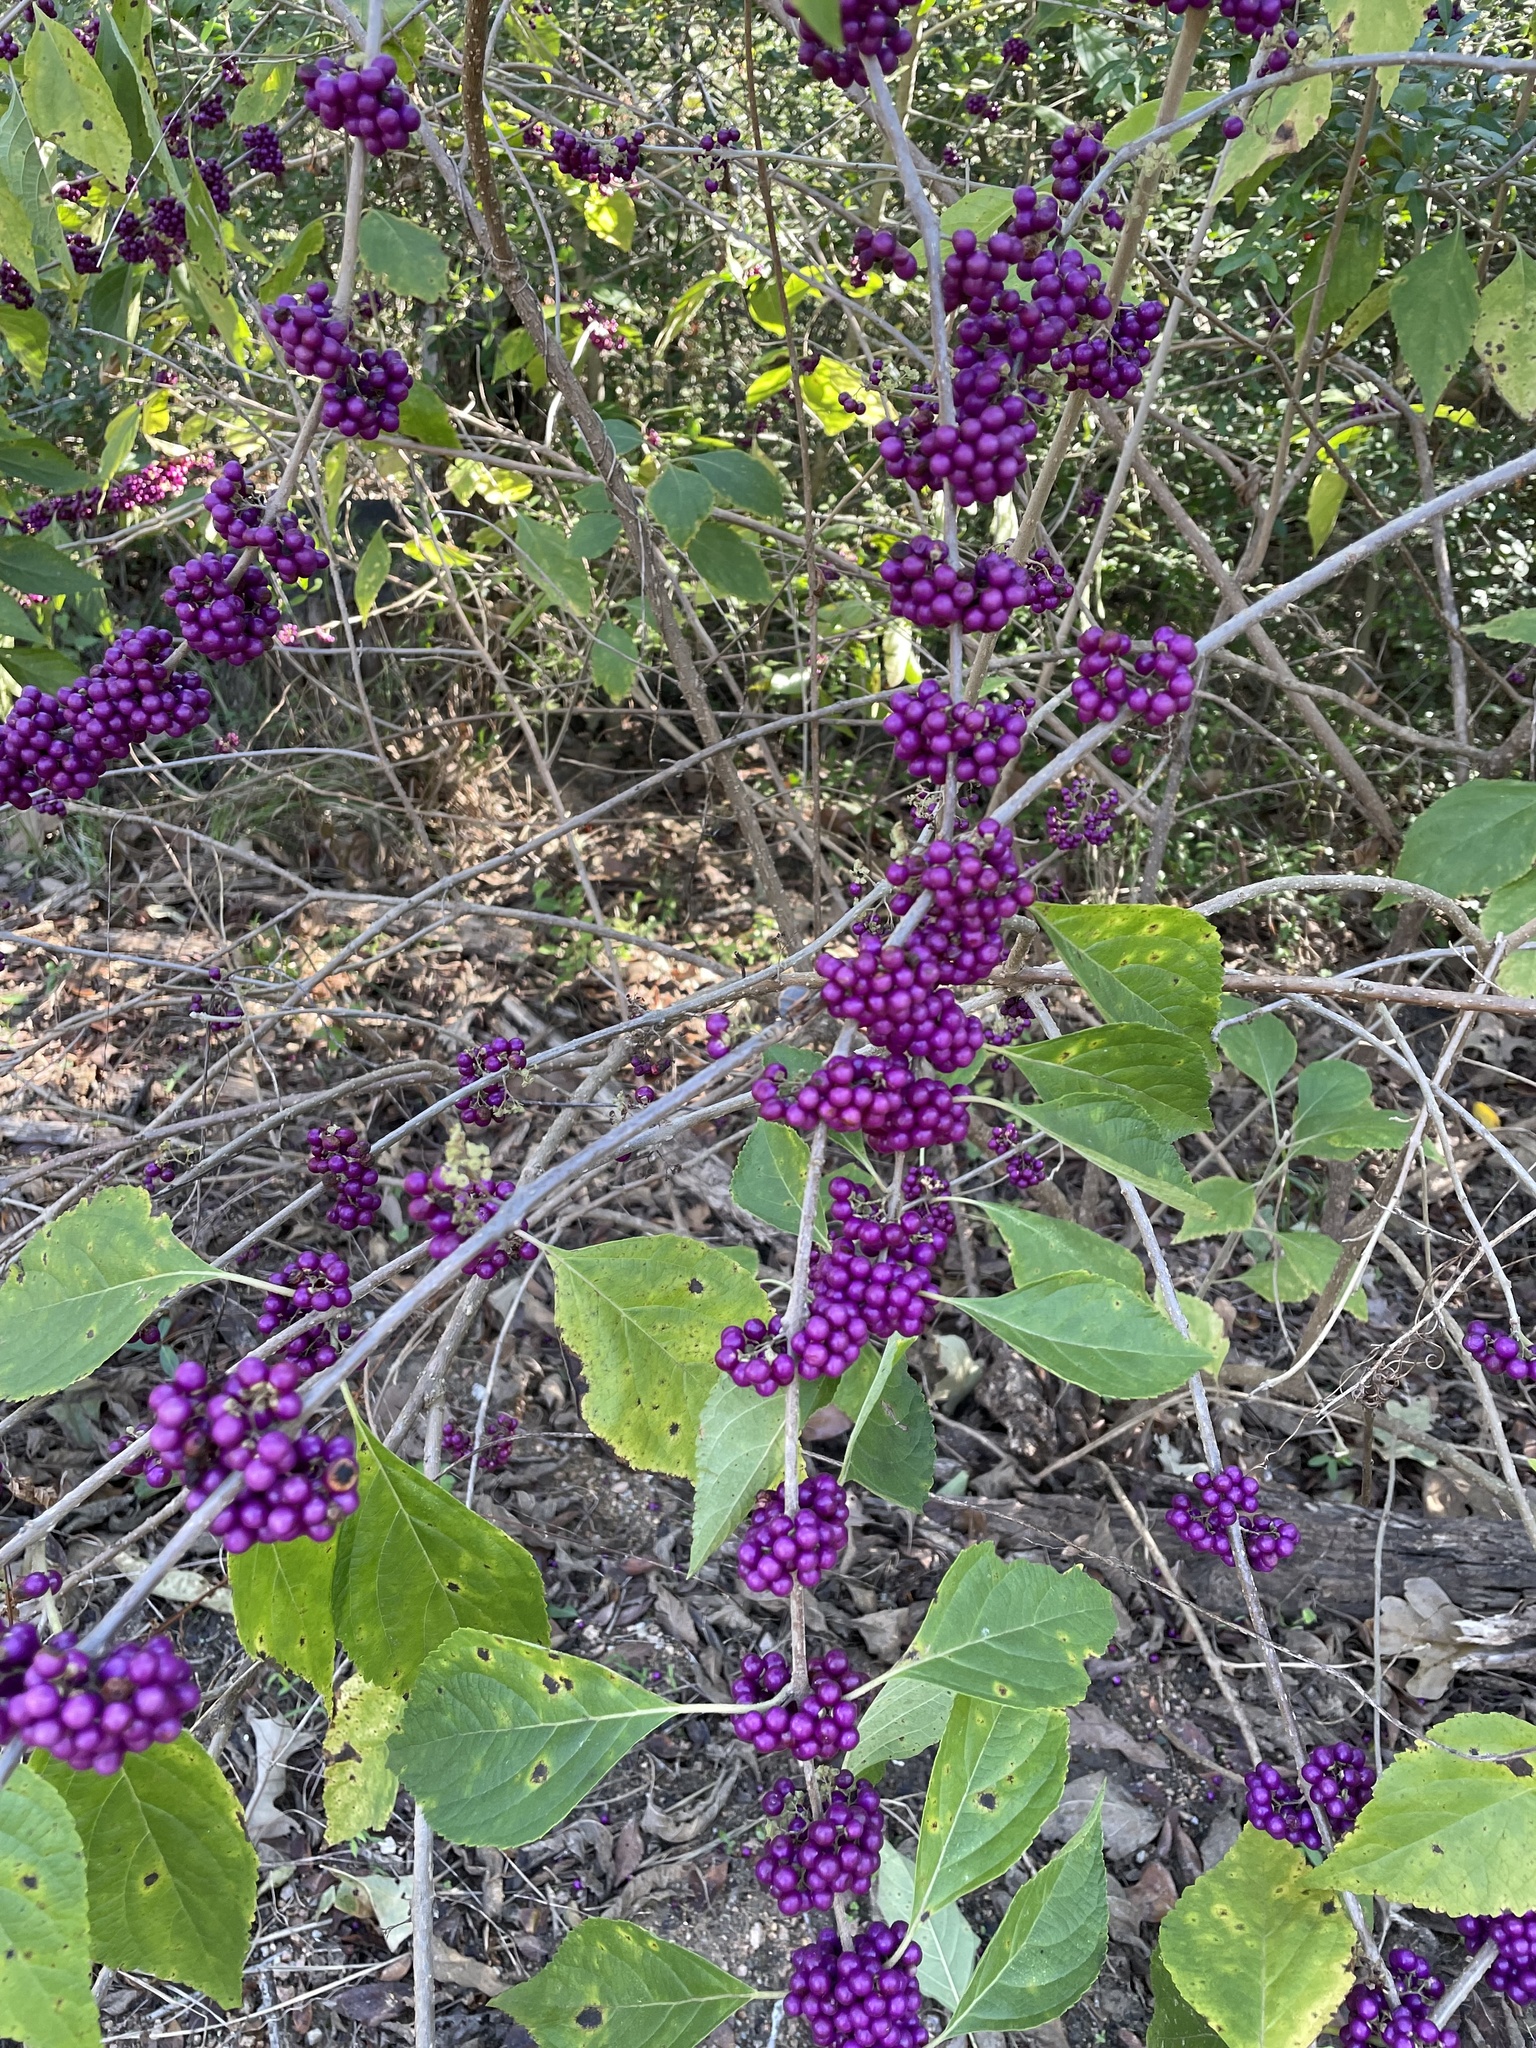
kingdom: Plantae
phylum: Tracheophyta
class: Magnoliopsida
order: Lamiales
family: Lamiaceae
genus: Callicarpa
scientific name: Callicarpa americana
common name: American beautyberry
